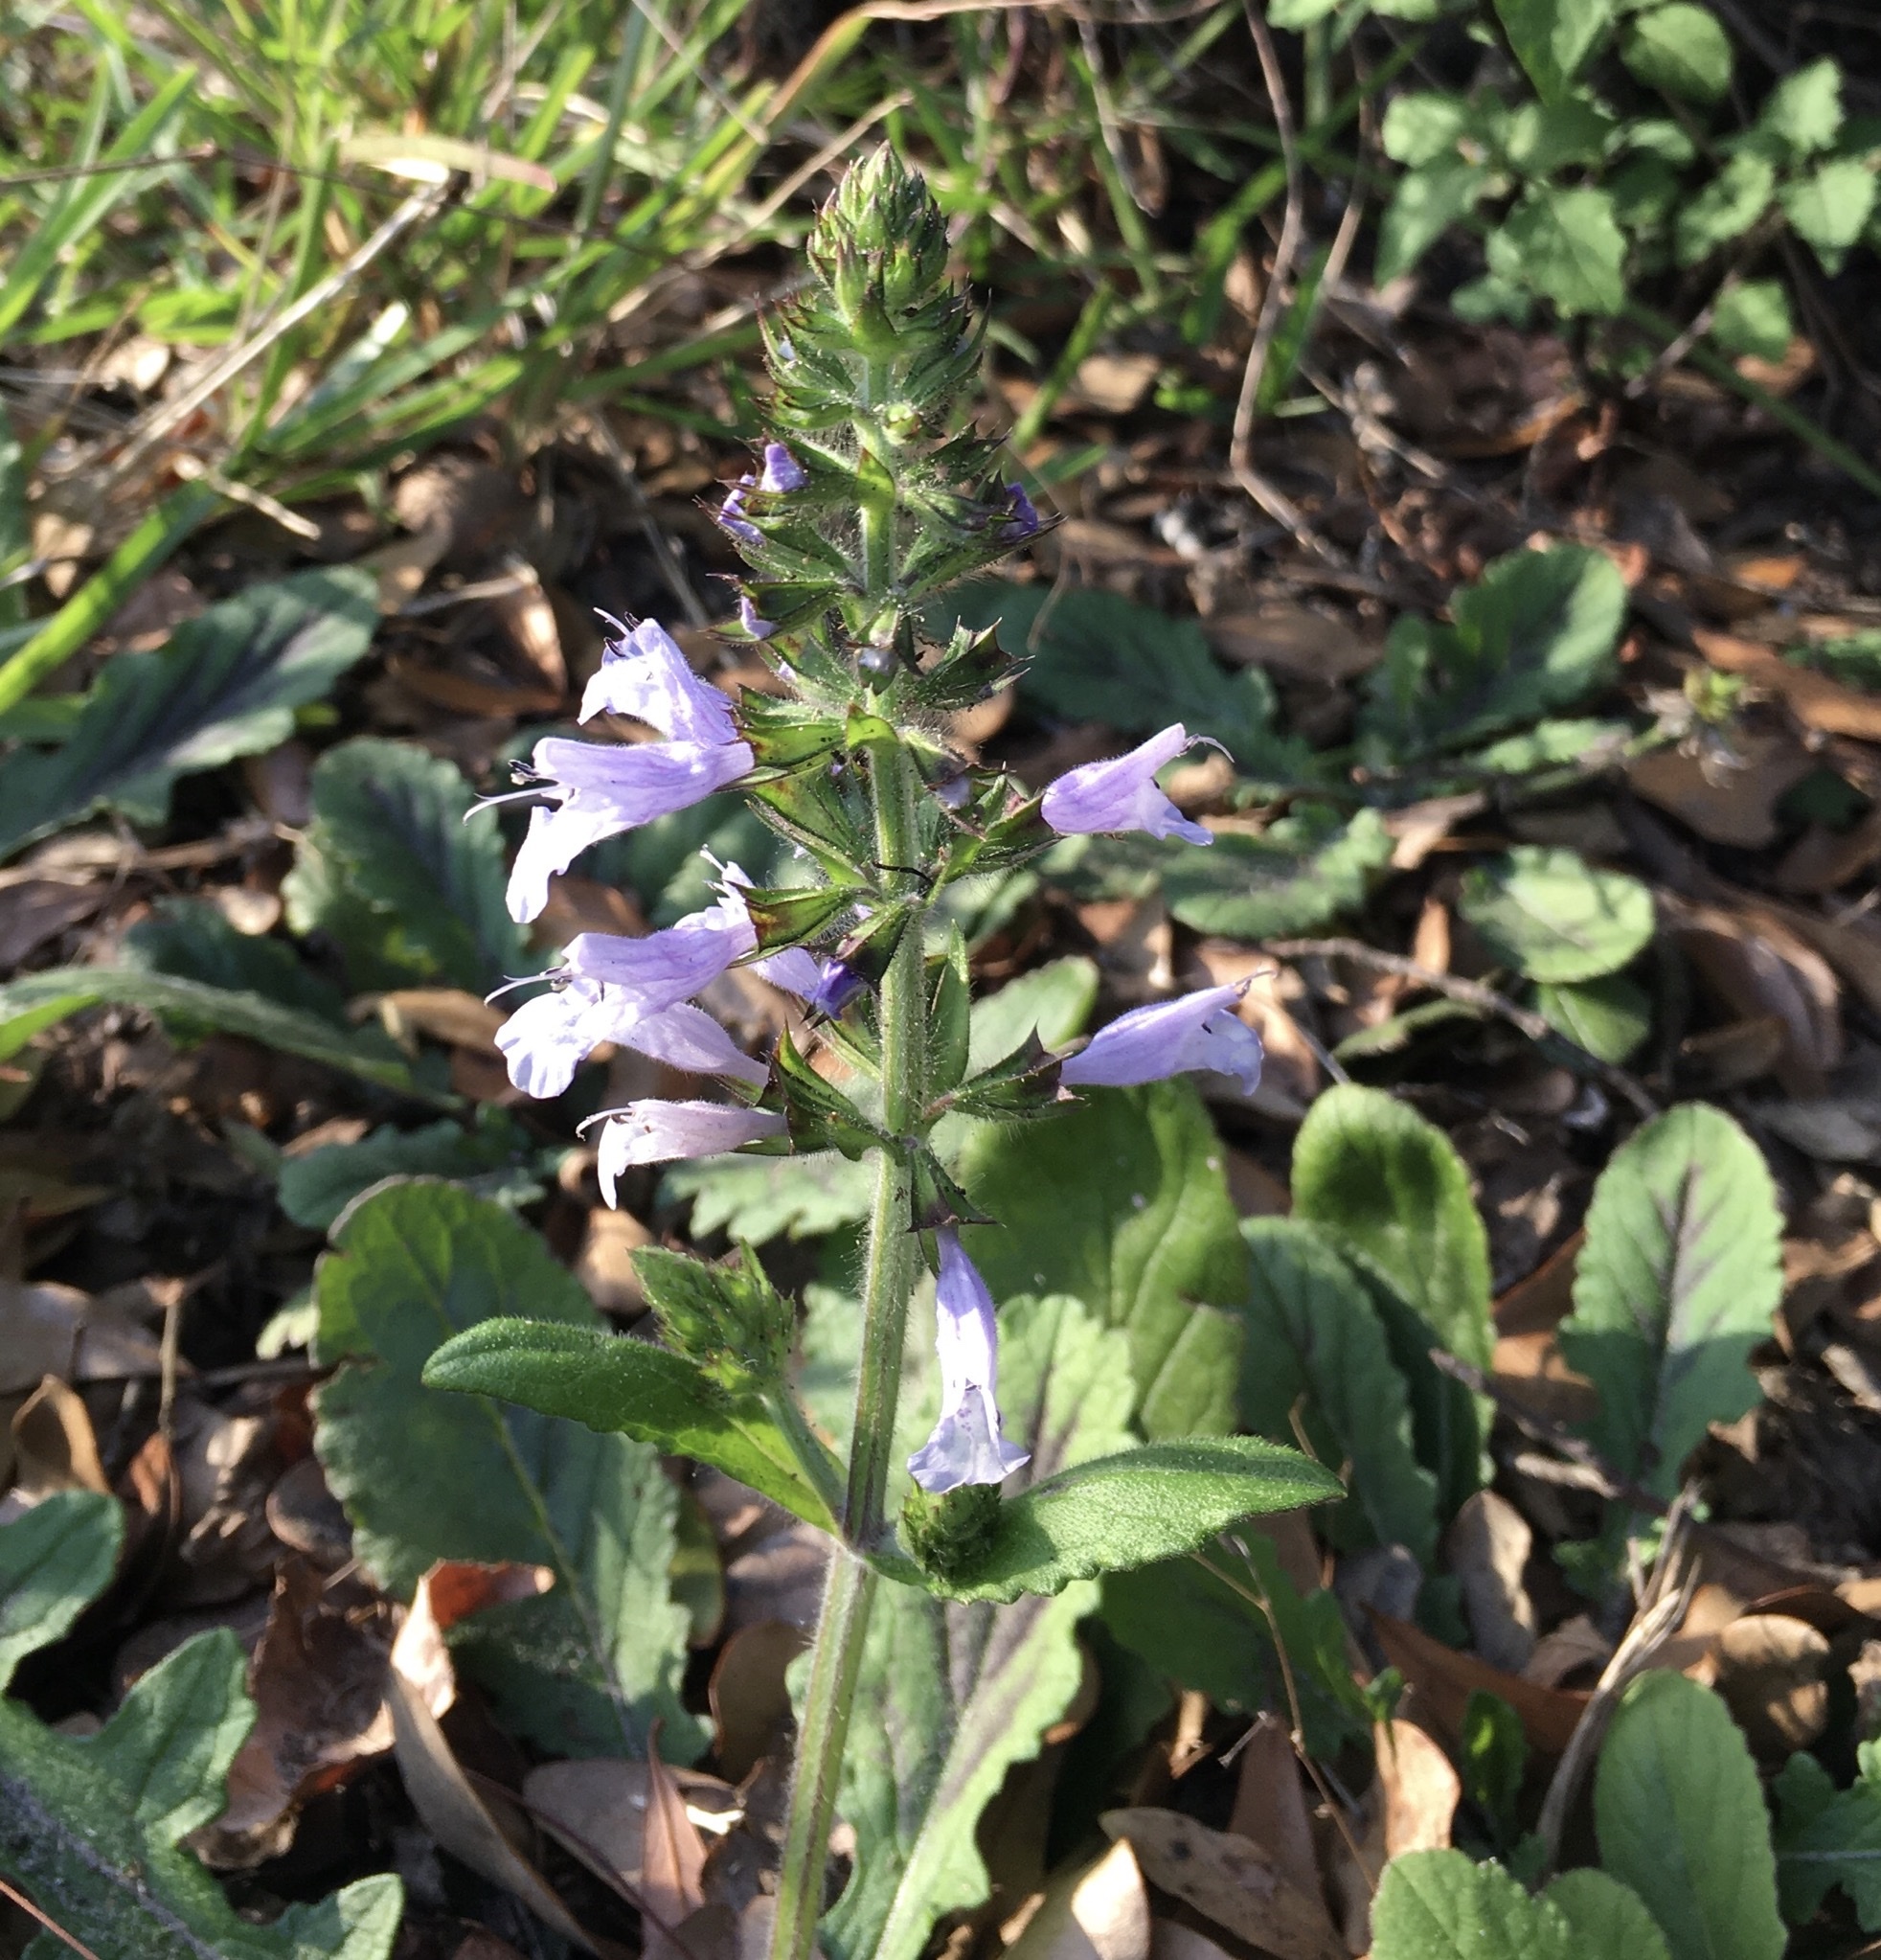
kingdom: Plantae
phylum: Tracheophyta
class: Magnoliopsida
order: Lamiales
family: Lamiaceae
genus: Salvia
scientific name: Salvia lyrata
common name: Cancerweed
